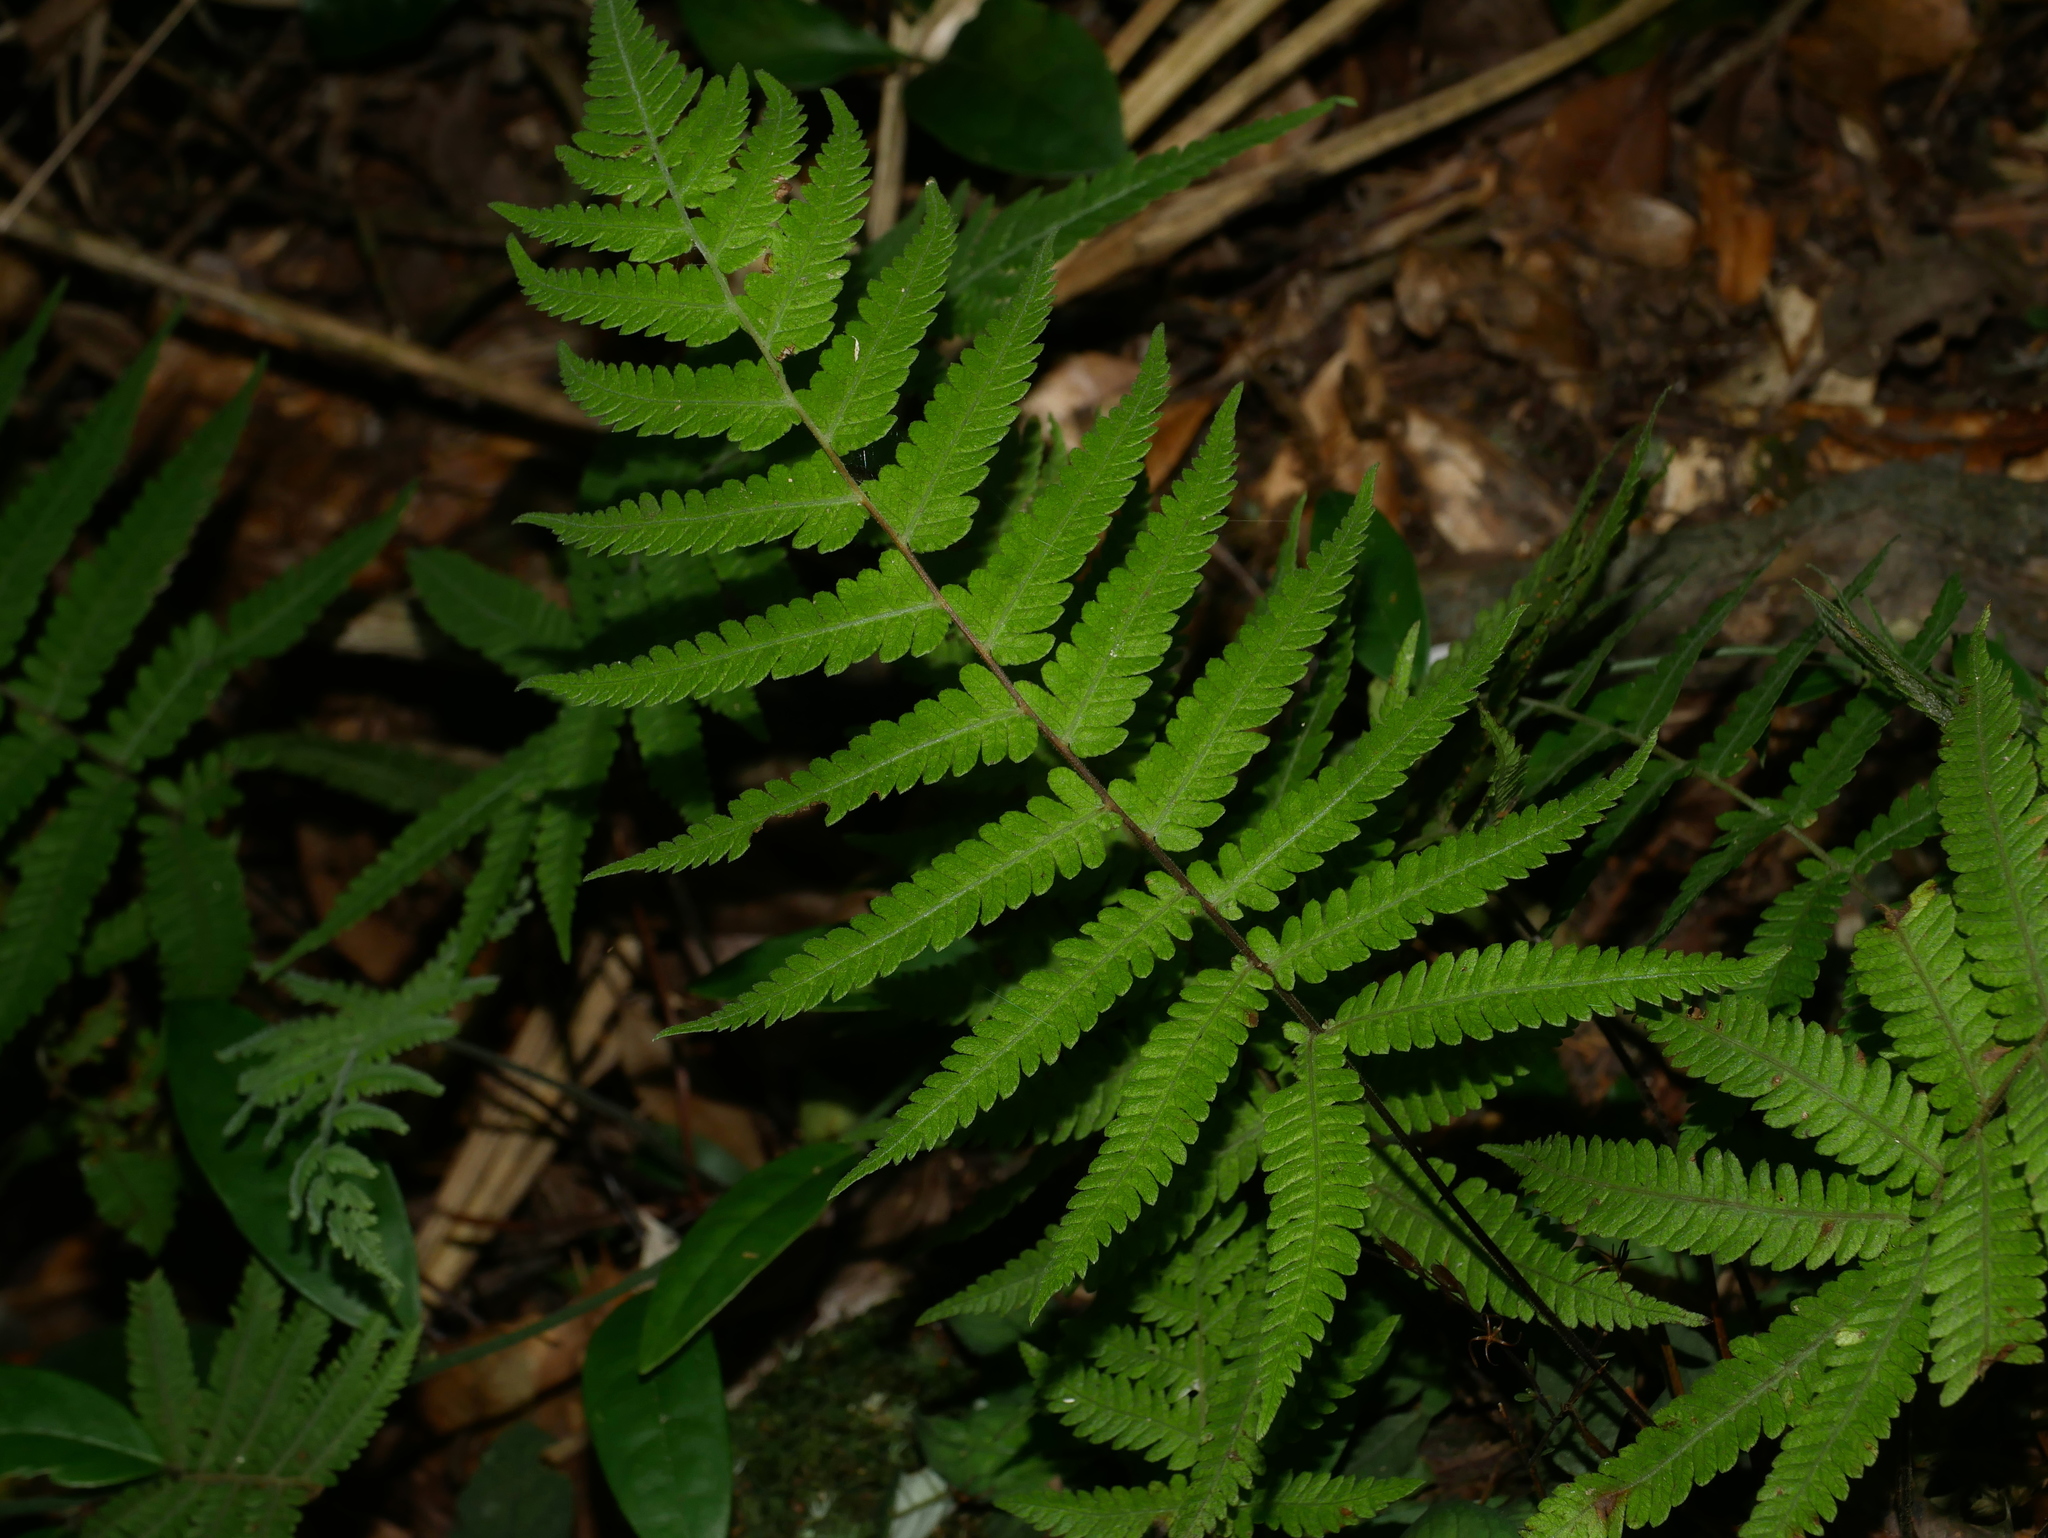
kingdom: Plantae
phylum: Tracheophyta
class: Polypodiopsida
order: Polypodiales
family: Thelypteridaceae
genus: Coryphopteris
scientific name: Coryphopteris castanea
